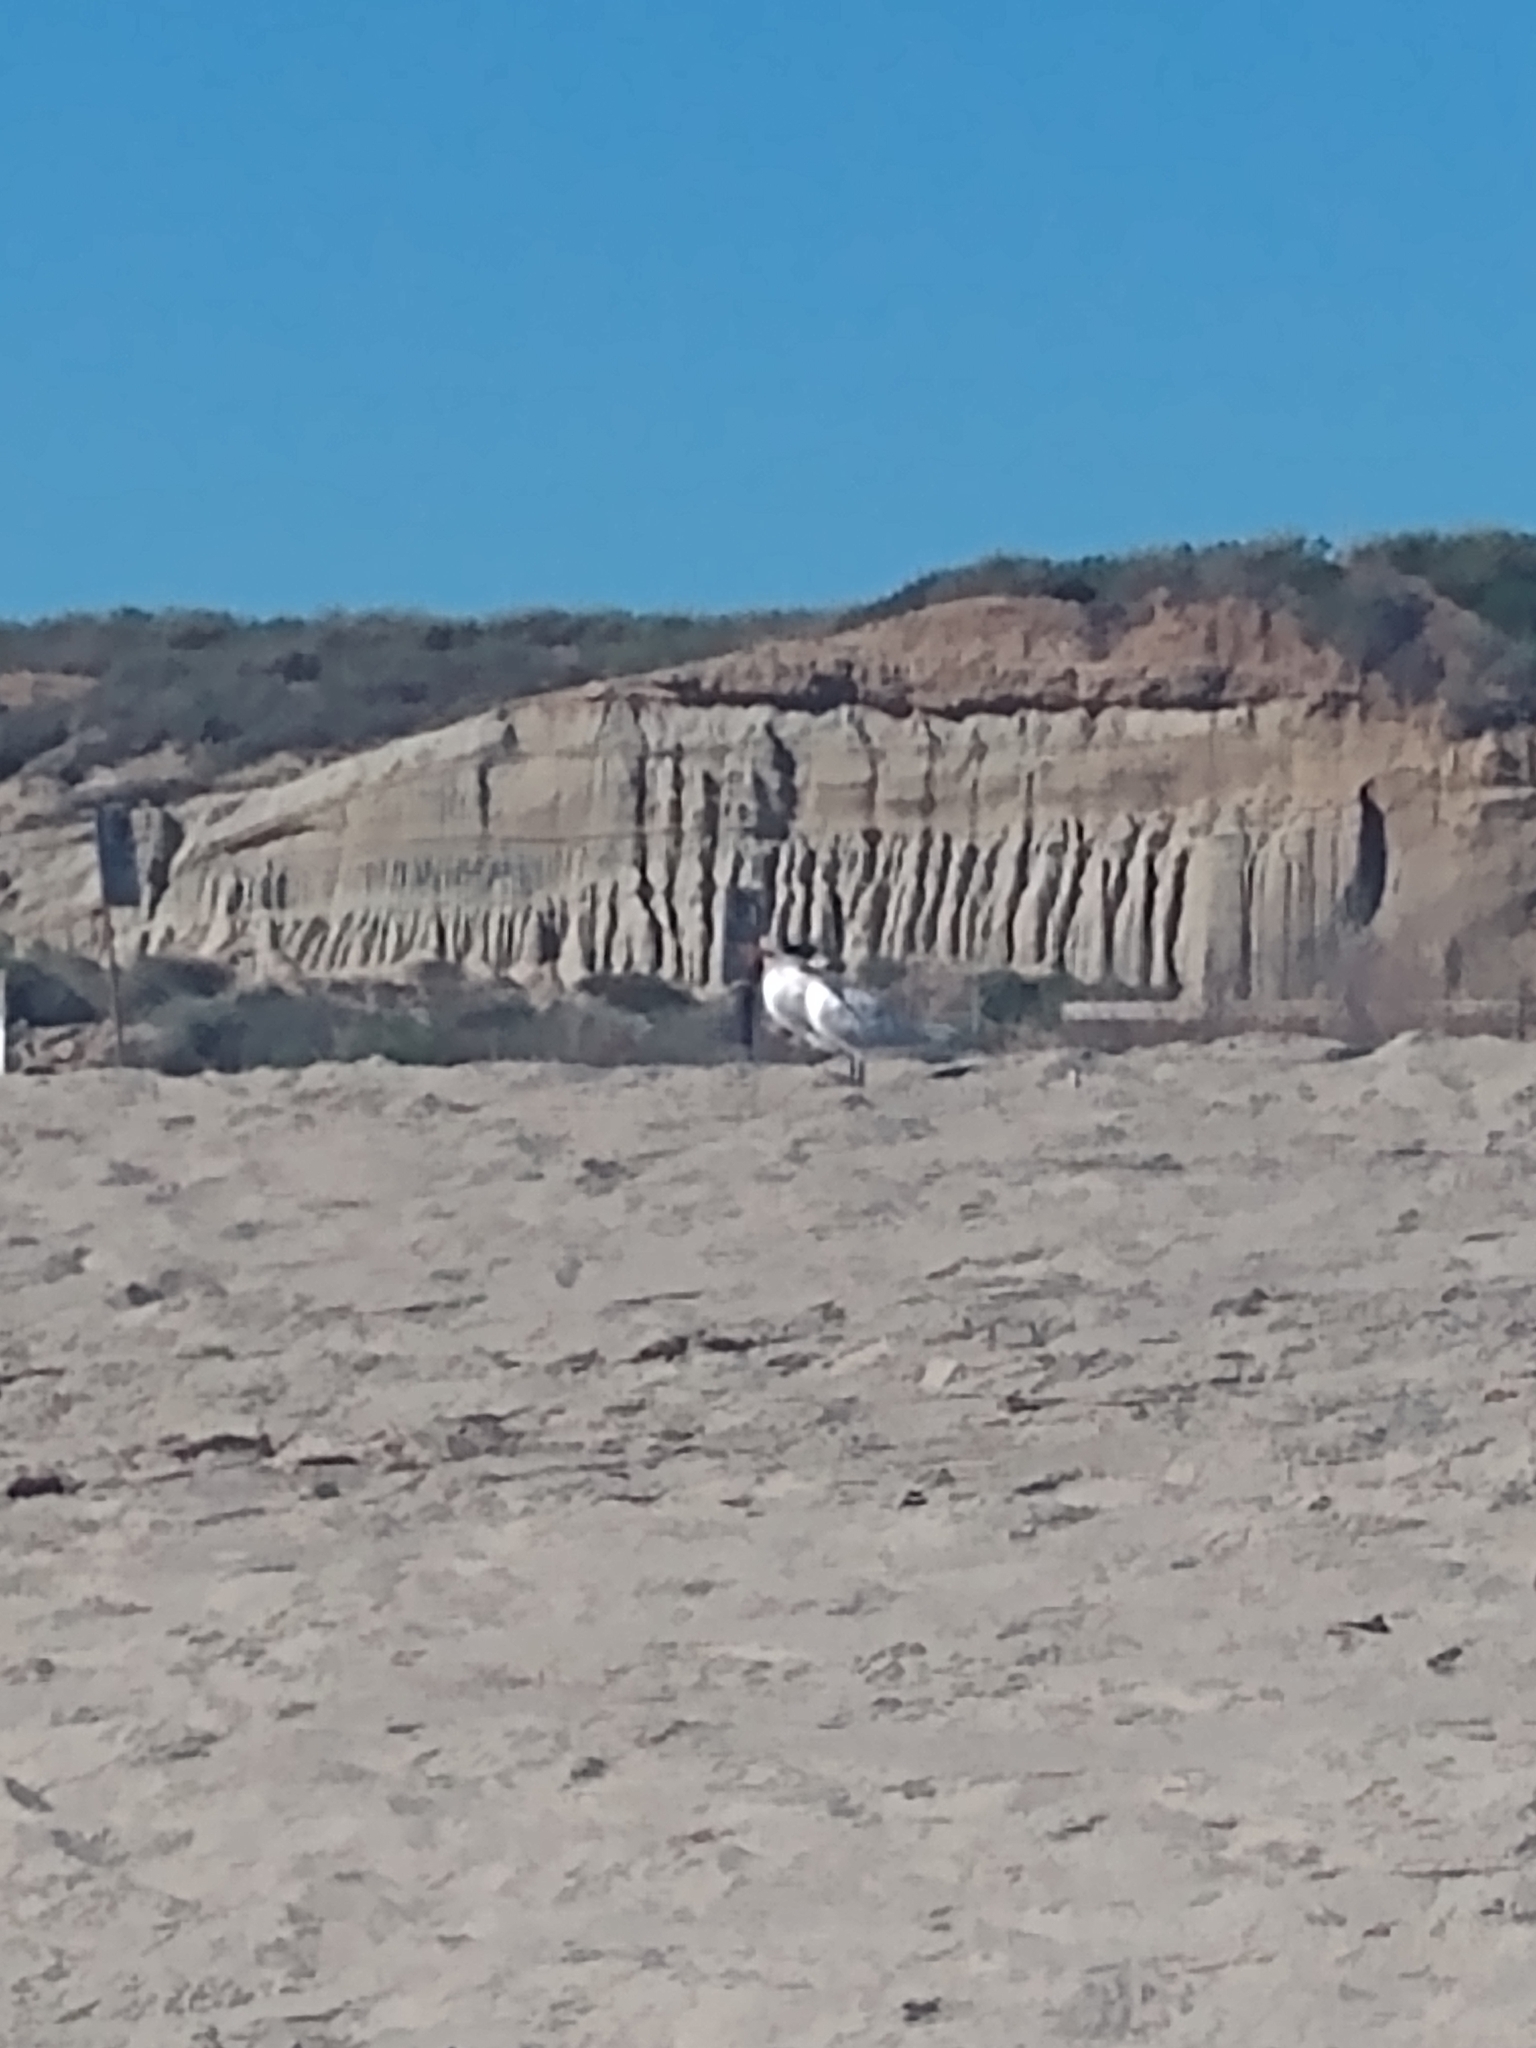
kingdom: Animalia
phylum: Chordata
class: Aves
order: Charadriiformes
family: Laridae
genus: Thalasseus
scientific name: Thalasseus maximus
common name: Royal tern
